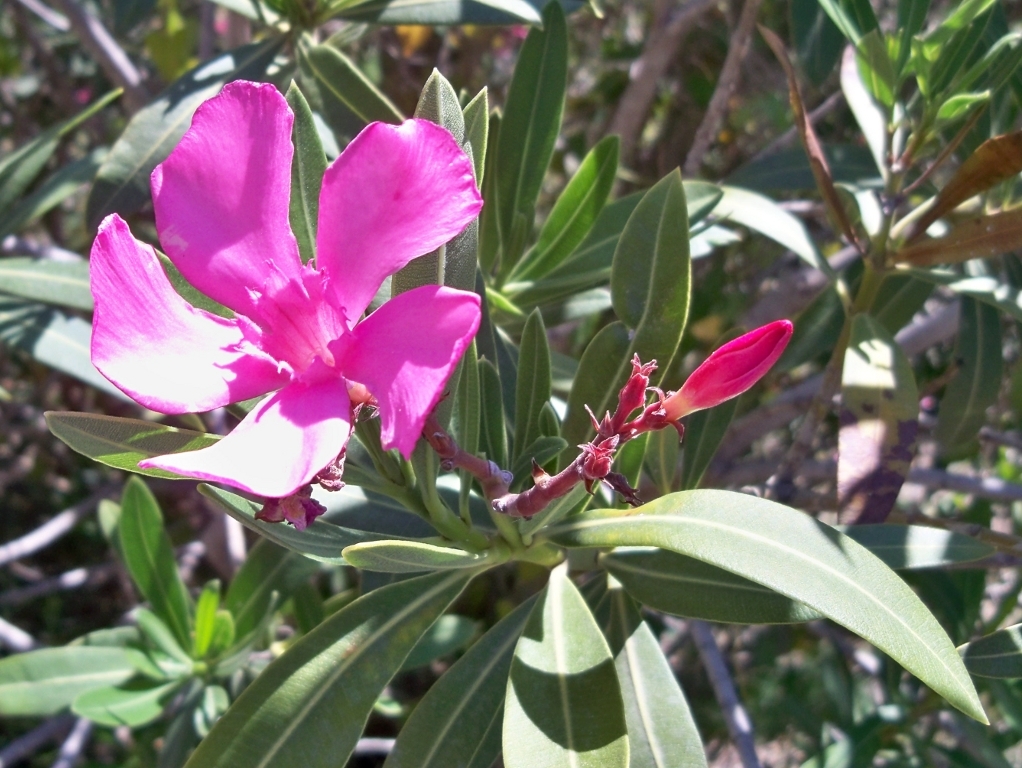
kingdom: Plantae
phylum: Tracheophyta
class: Magnoliopsida
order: Gentianales
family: Apocynaceae
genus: Nerium
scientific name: Nerium oleander
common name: Oleander
